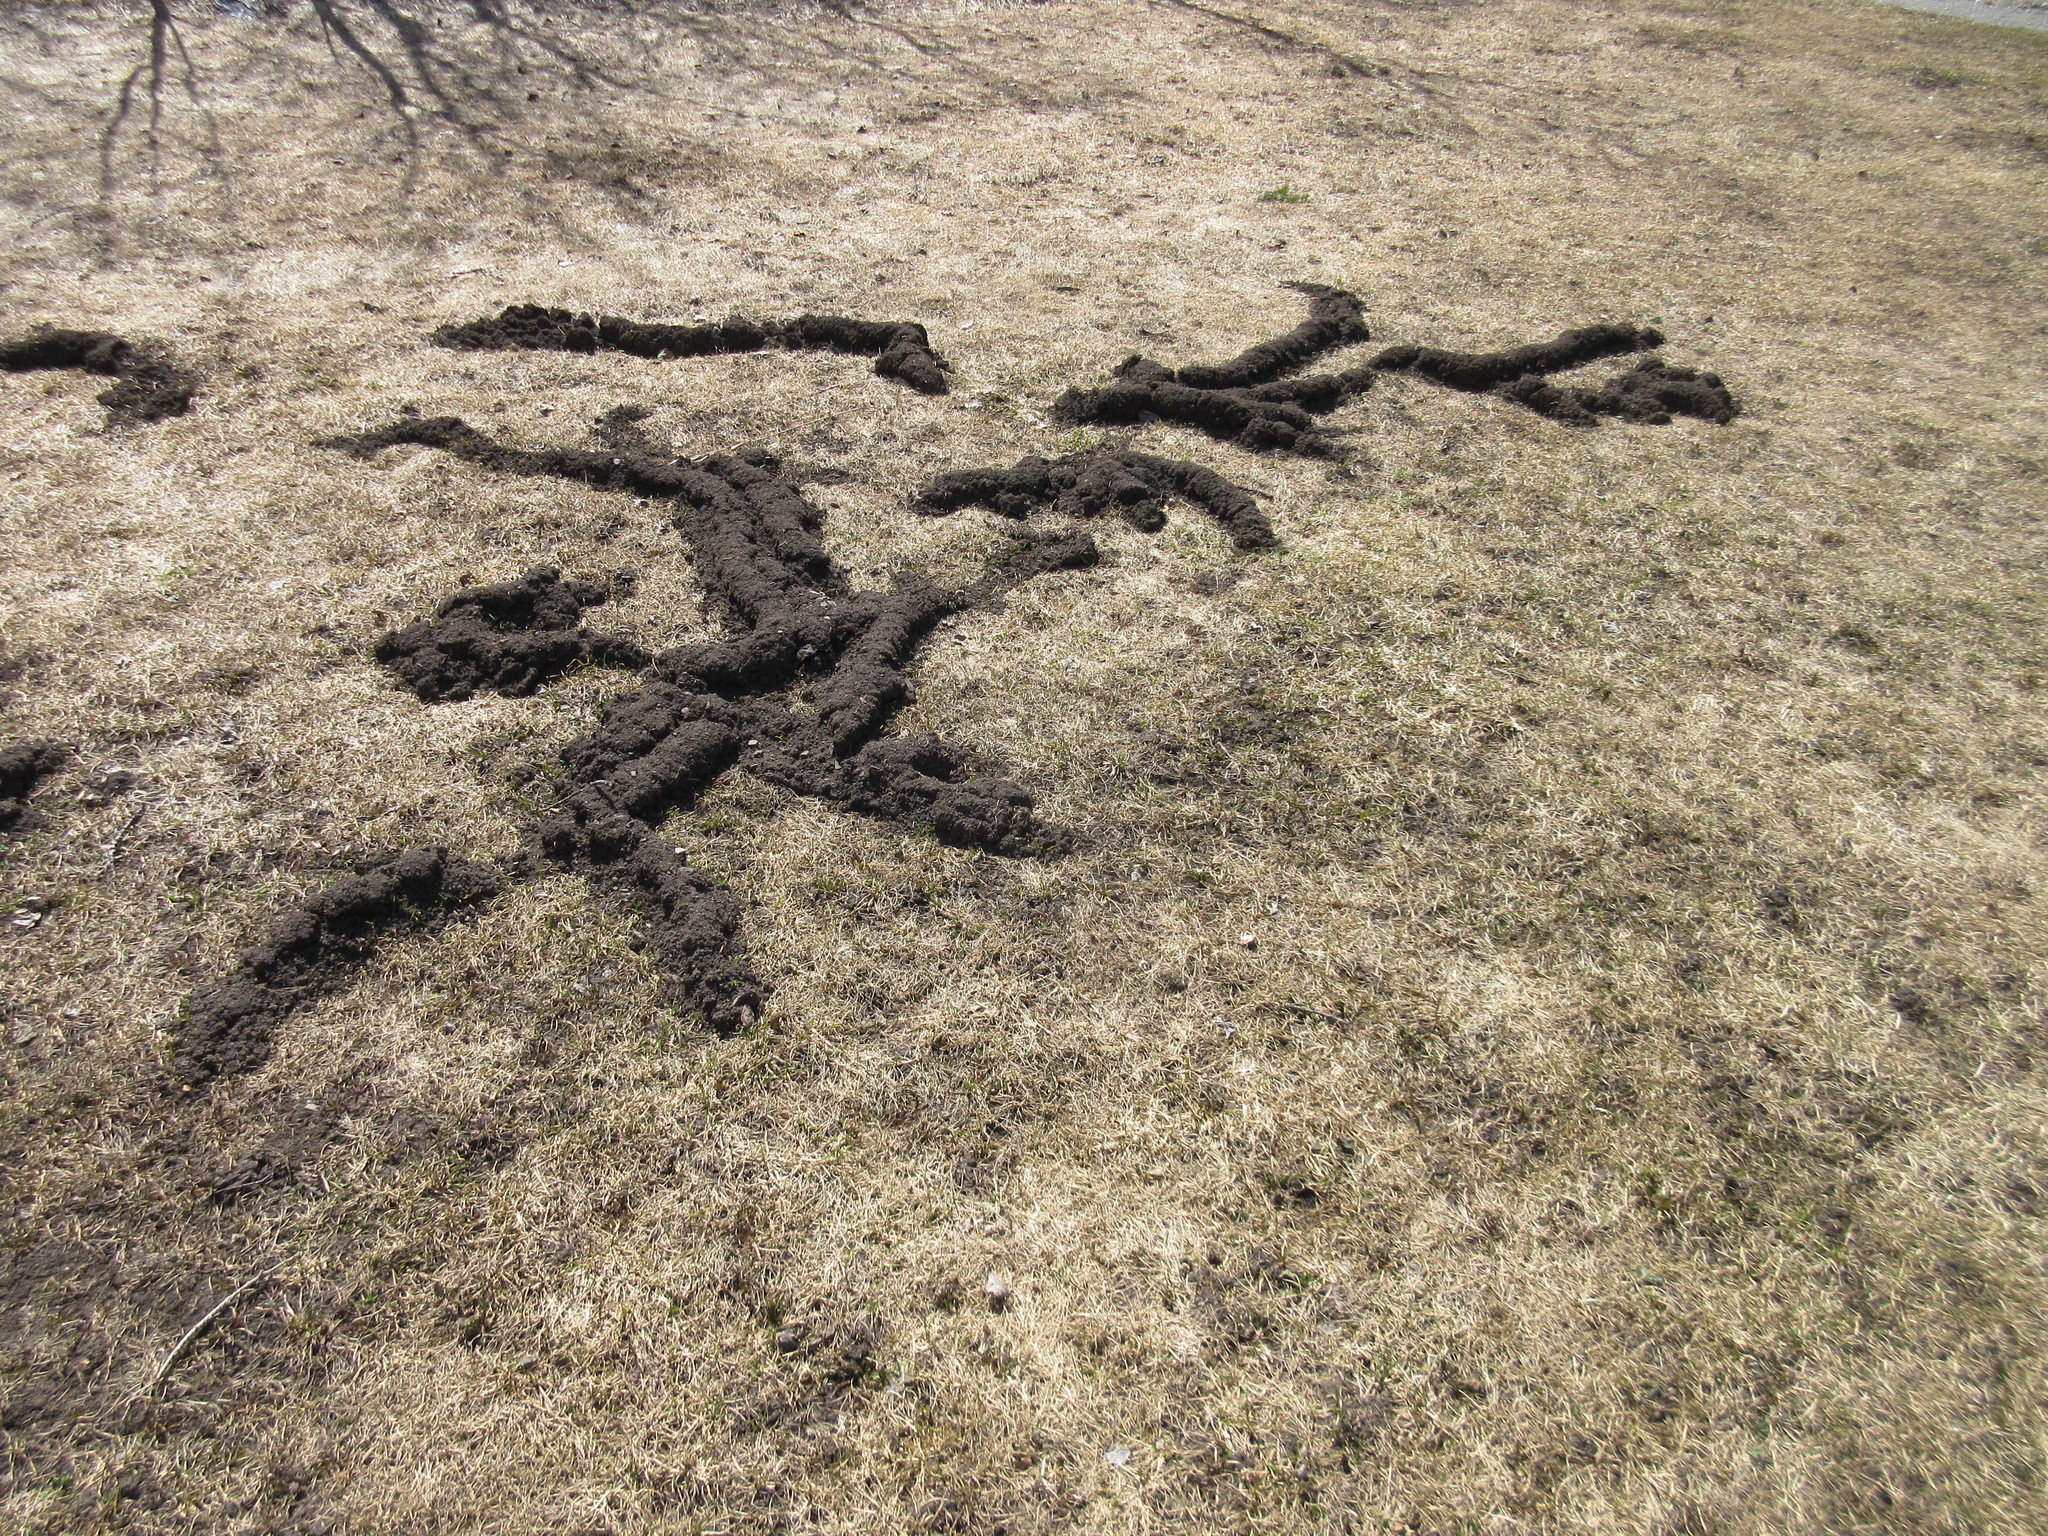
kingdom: Animalia
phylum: Chordata
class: Mammalia
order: Rodentia
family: Geomyidae
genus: Thomomys
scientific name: Thomomys talpoides
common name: Northern pocket gopher
